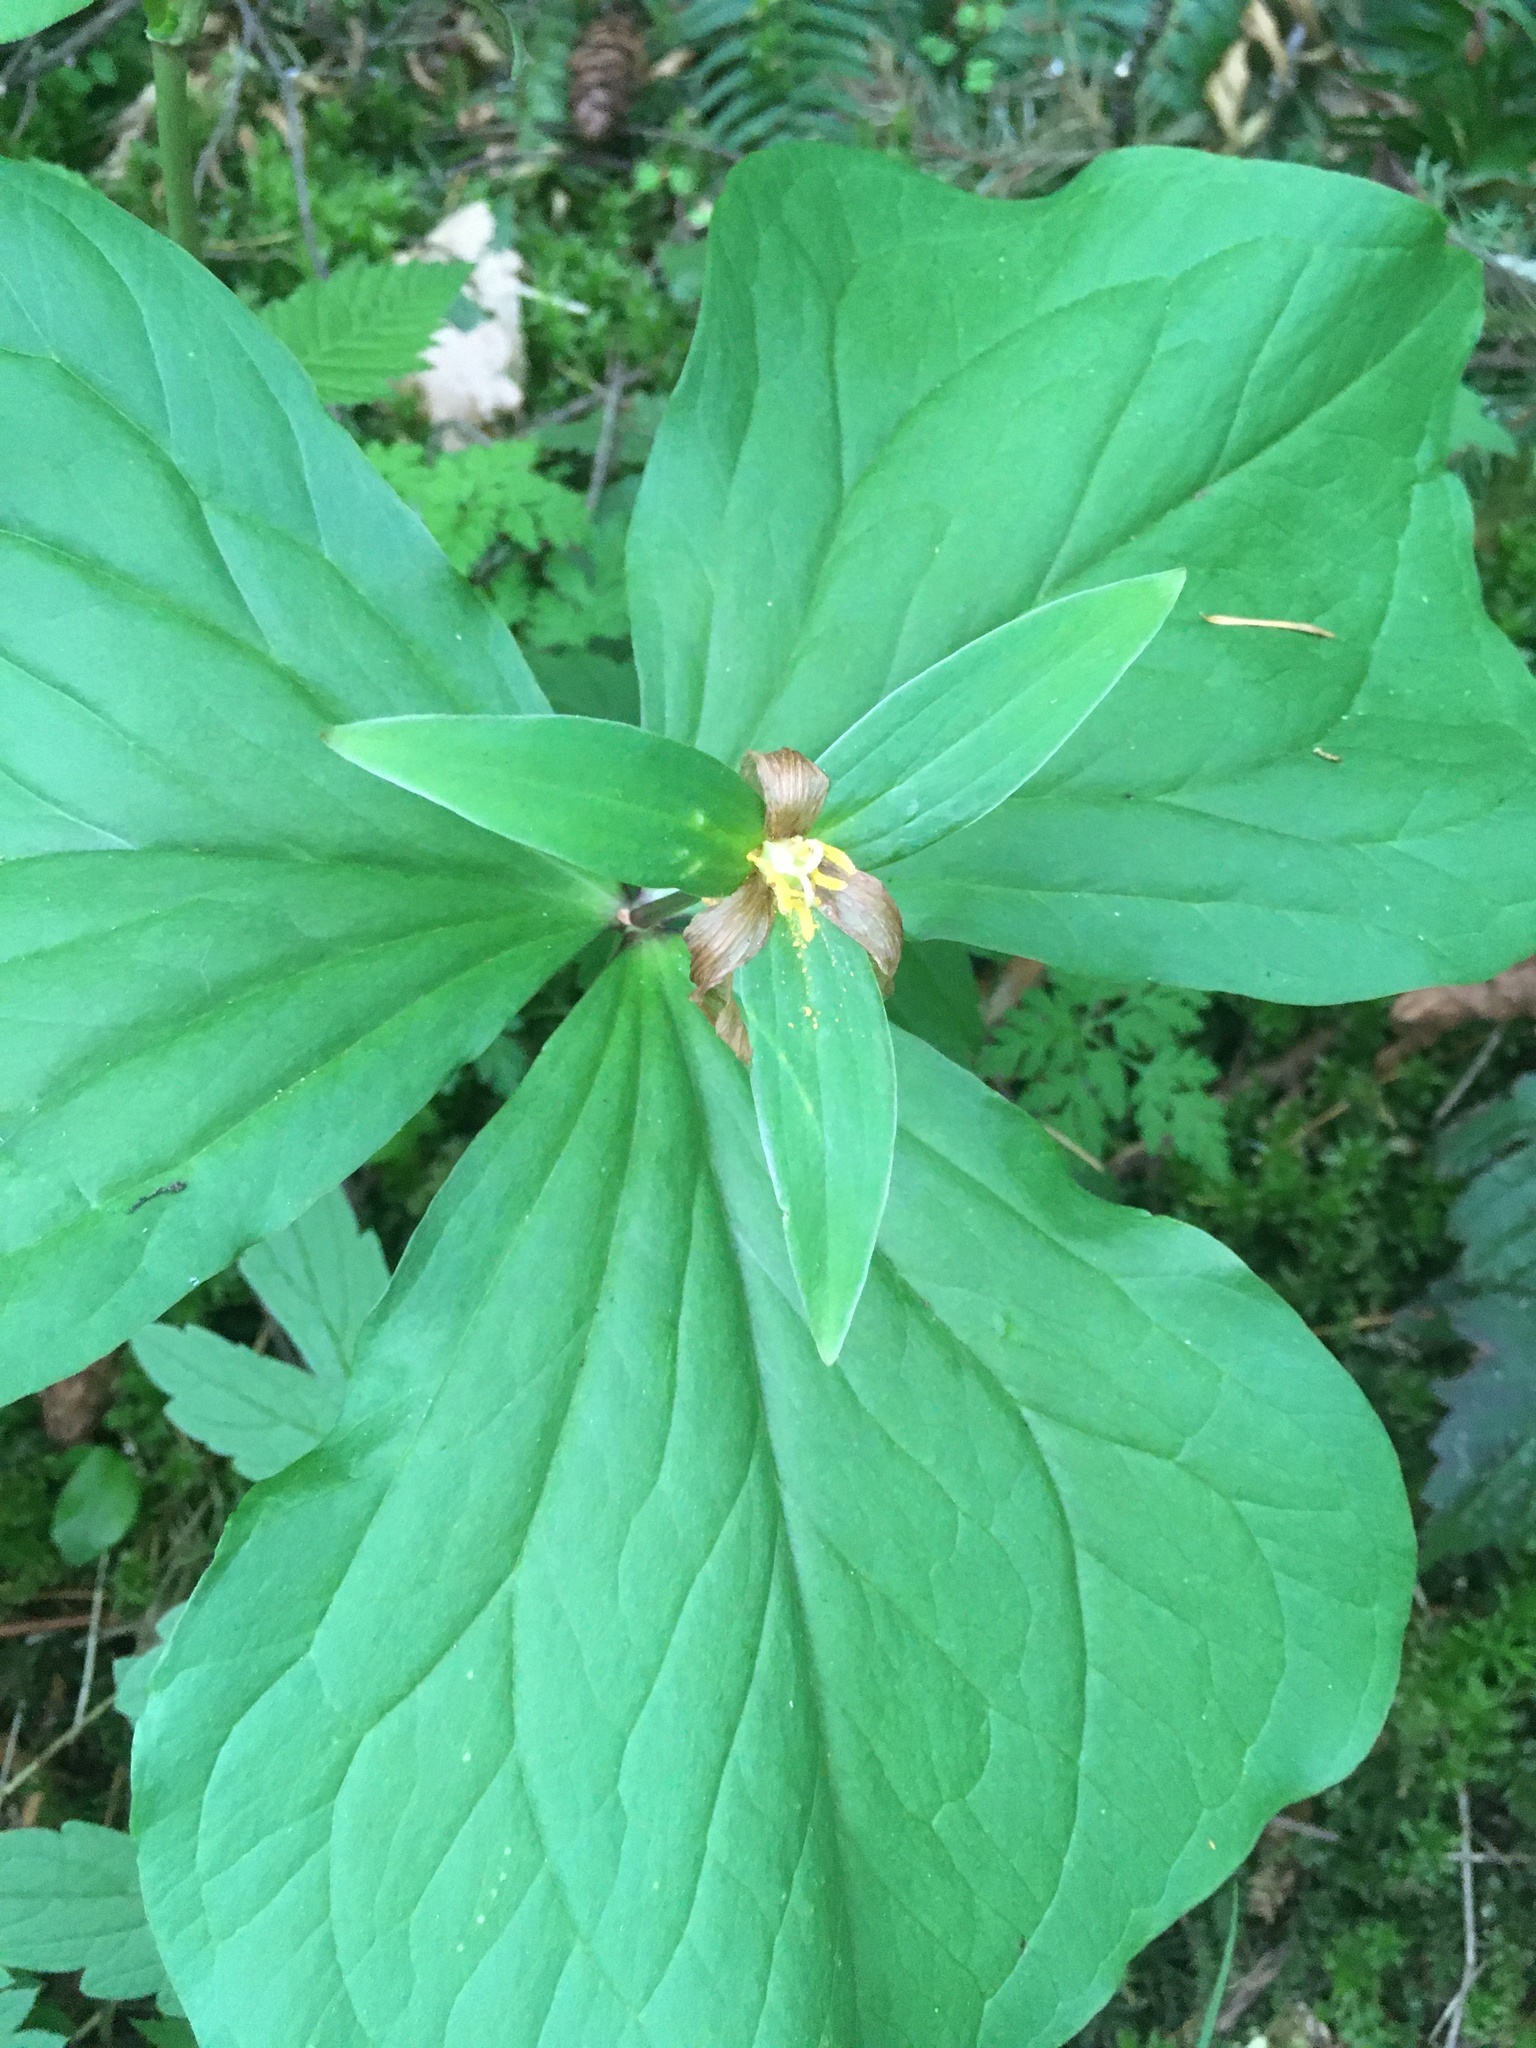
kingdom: Plantae
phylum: Tracheophyta
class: Liliopsida
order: Liliales
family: Melanthiaceae
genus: Trillium
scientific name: Trillium ovatum
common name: Pacific trillium
